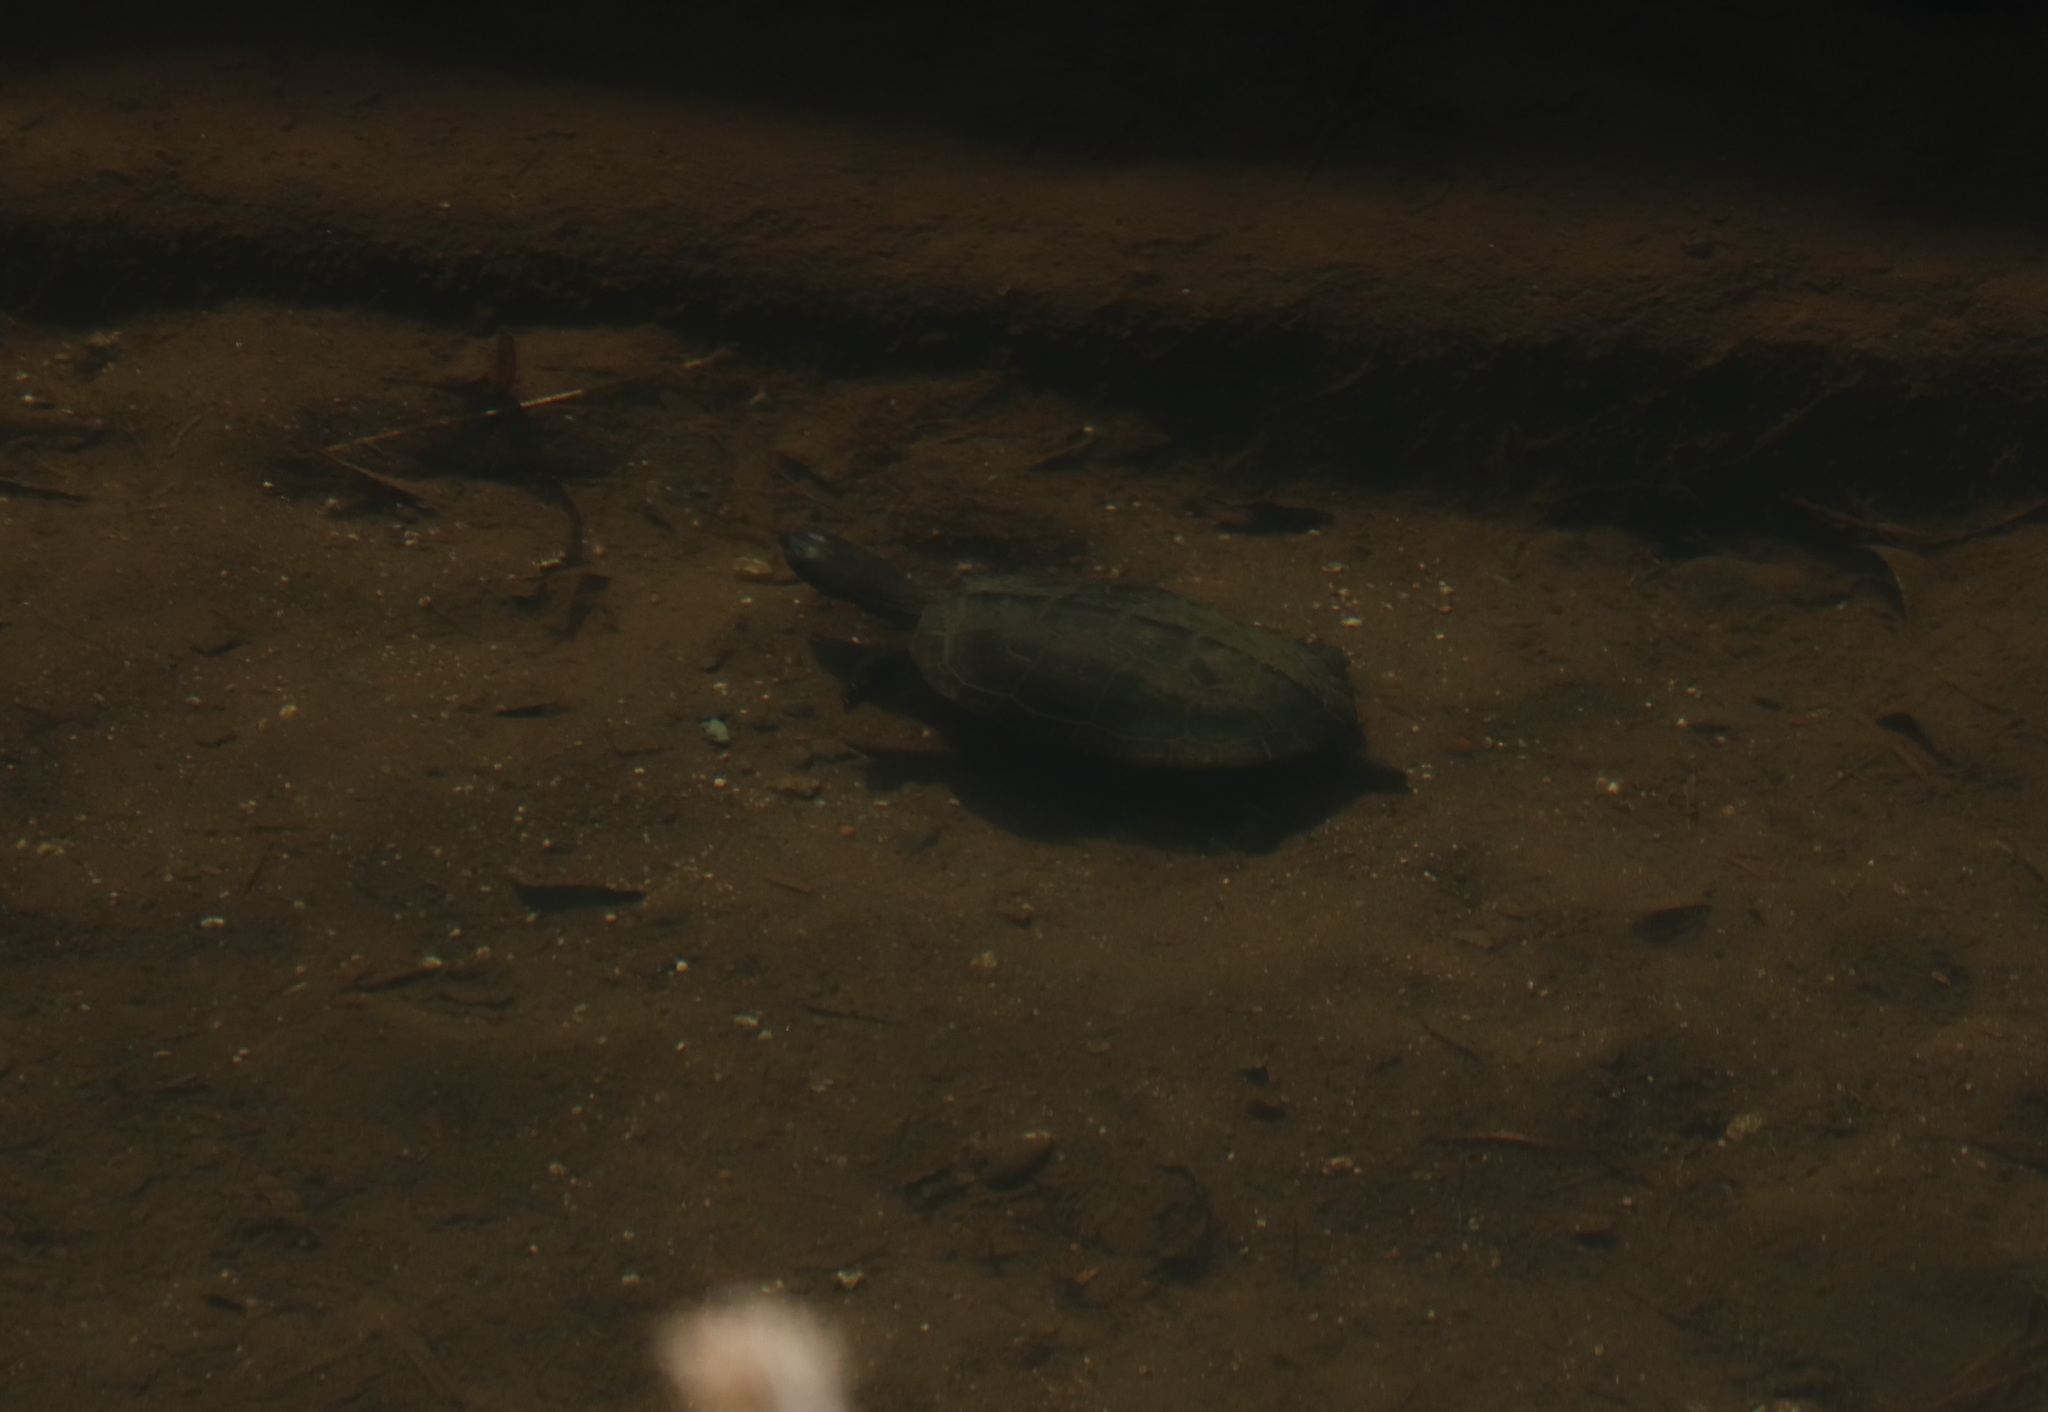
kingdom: Animalia
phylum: Chordata
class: Testudines
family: Geoemydidae
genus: Mauremys
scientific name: Mauremys reevesii
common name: Chinese pond turtle
